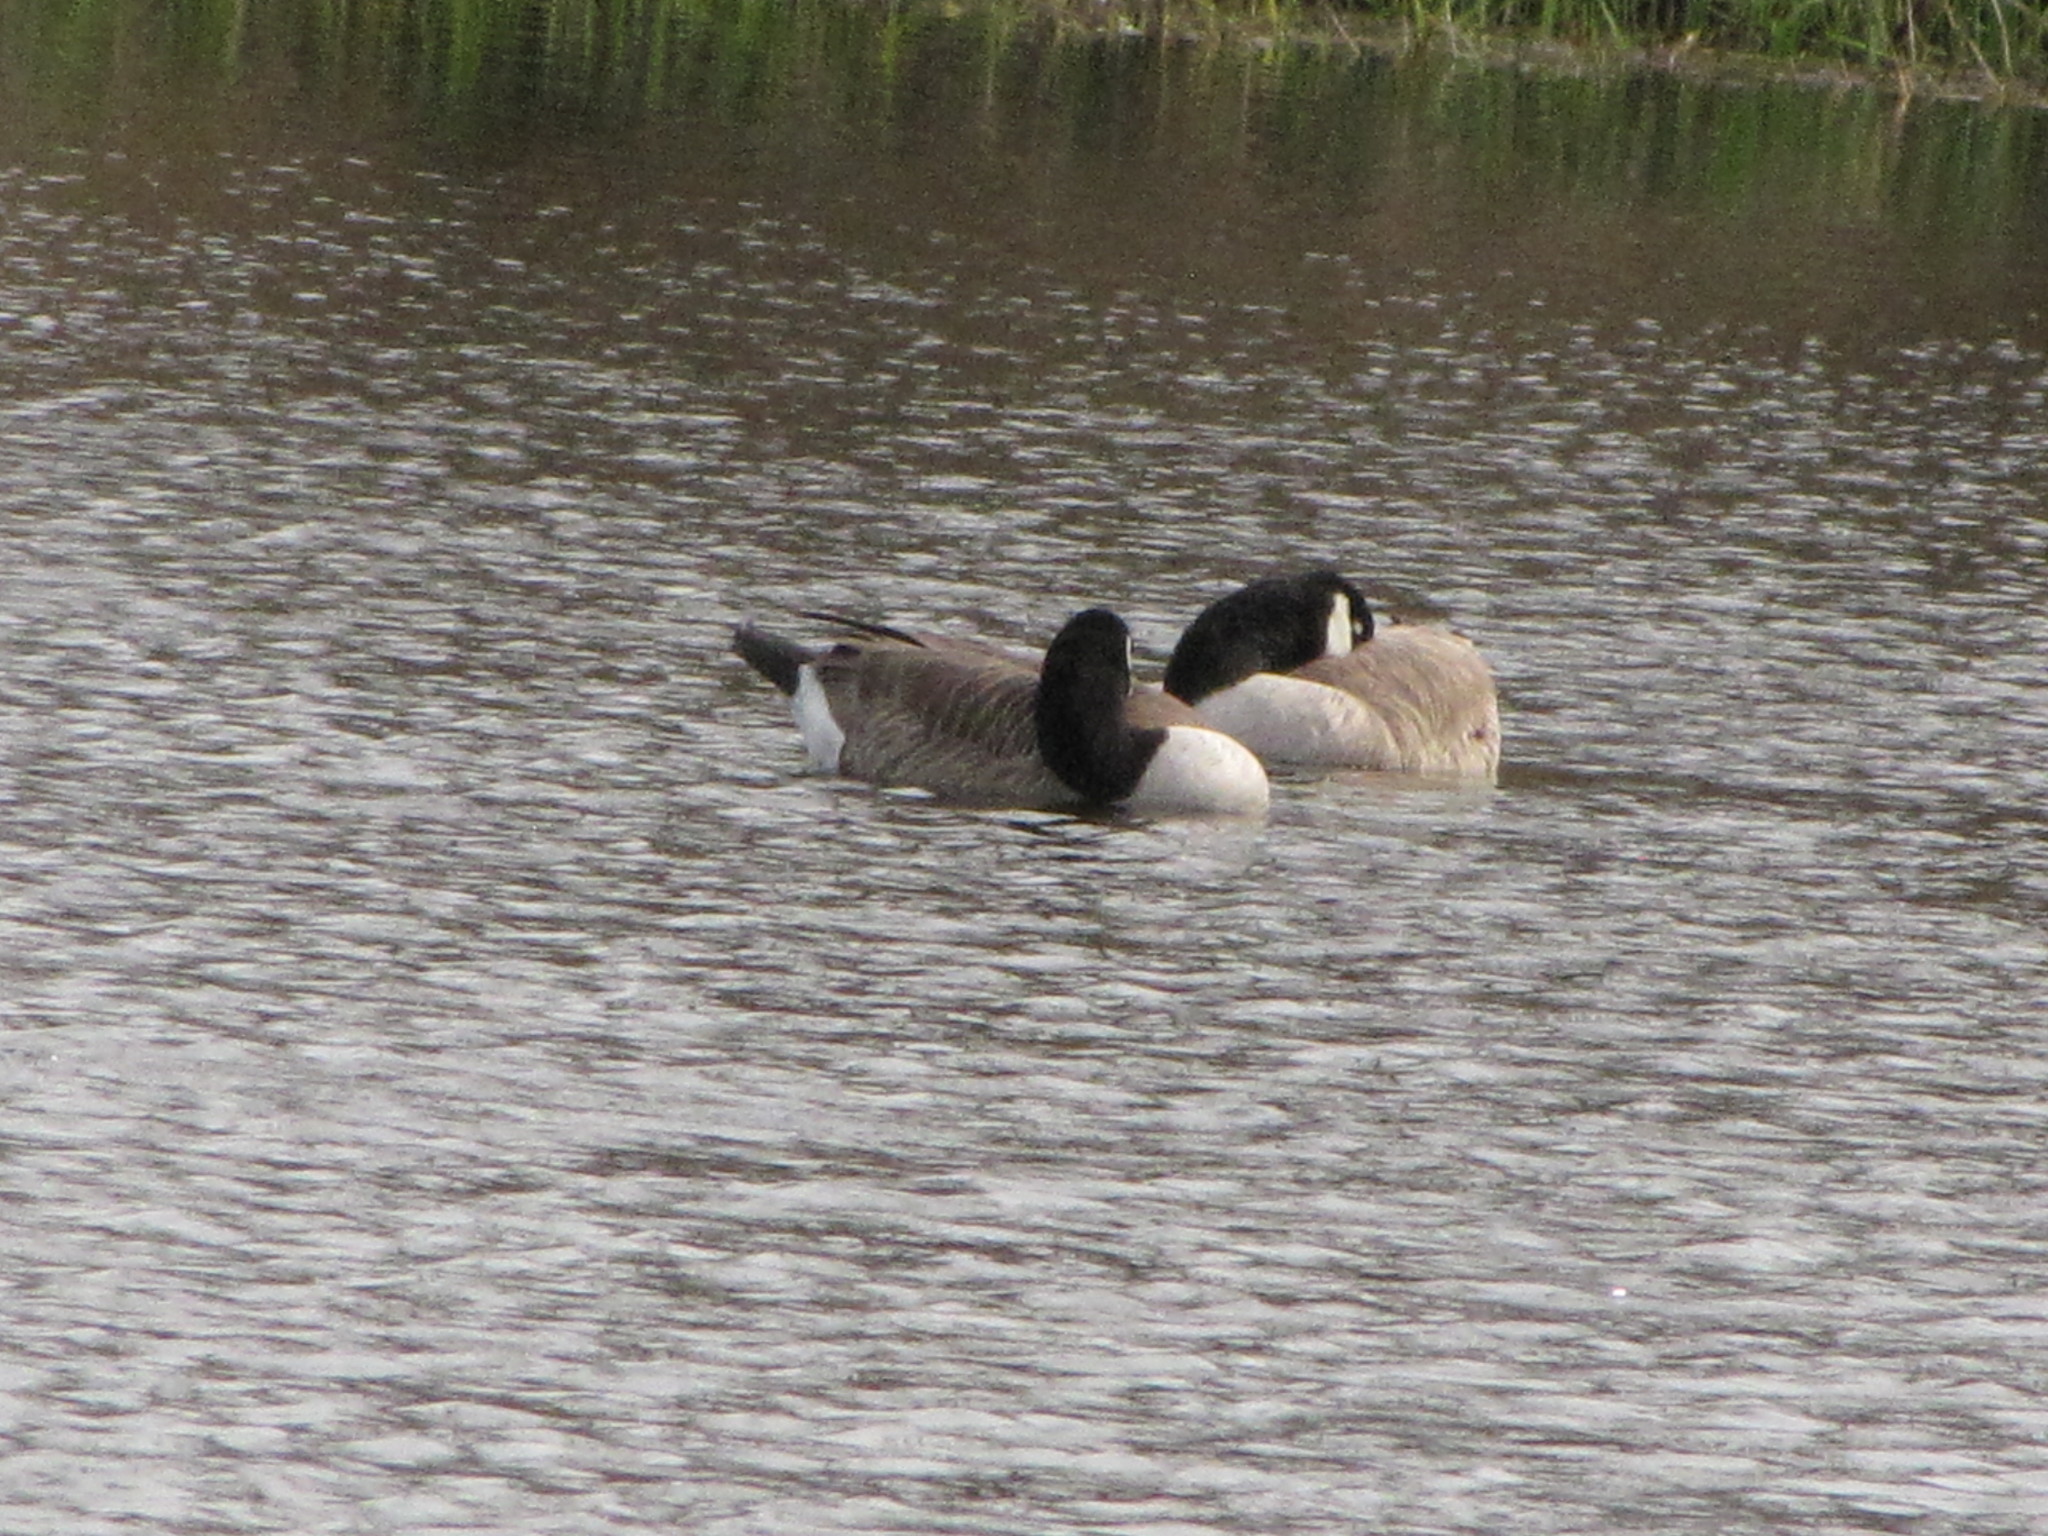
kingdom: Animalia
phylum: Chordata
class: Aves
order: Anseriformes
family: Anatidae
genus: Branta
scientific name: Branta canadensis
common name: Canada goose
